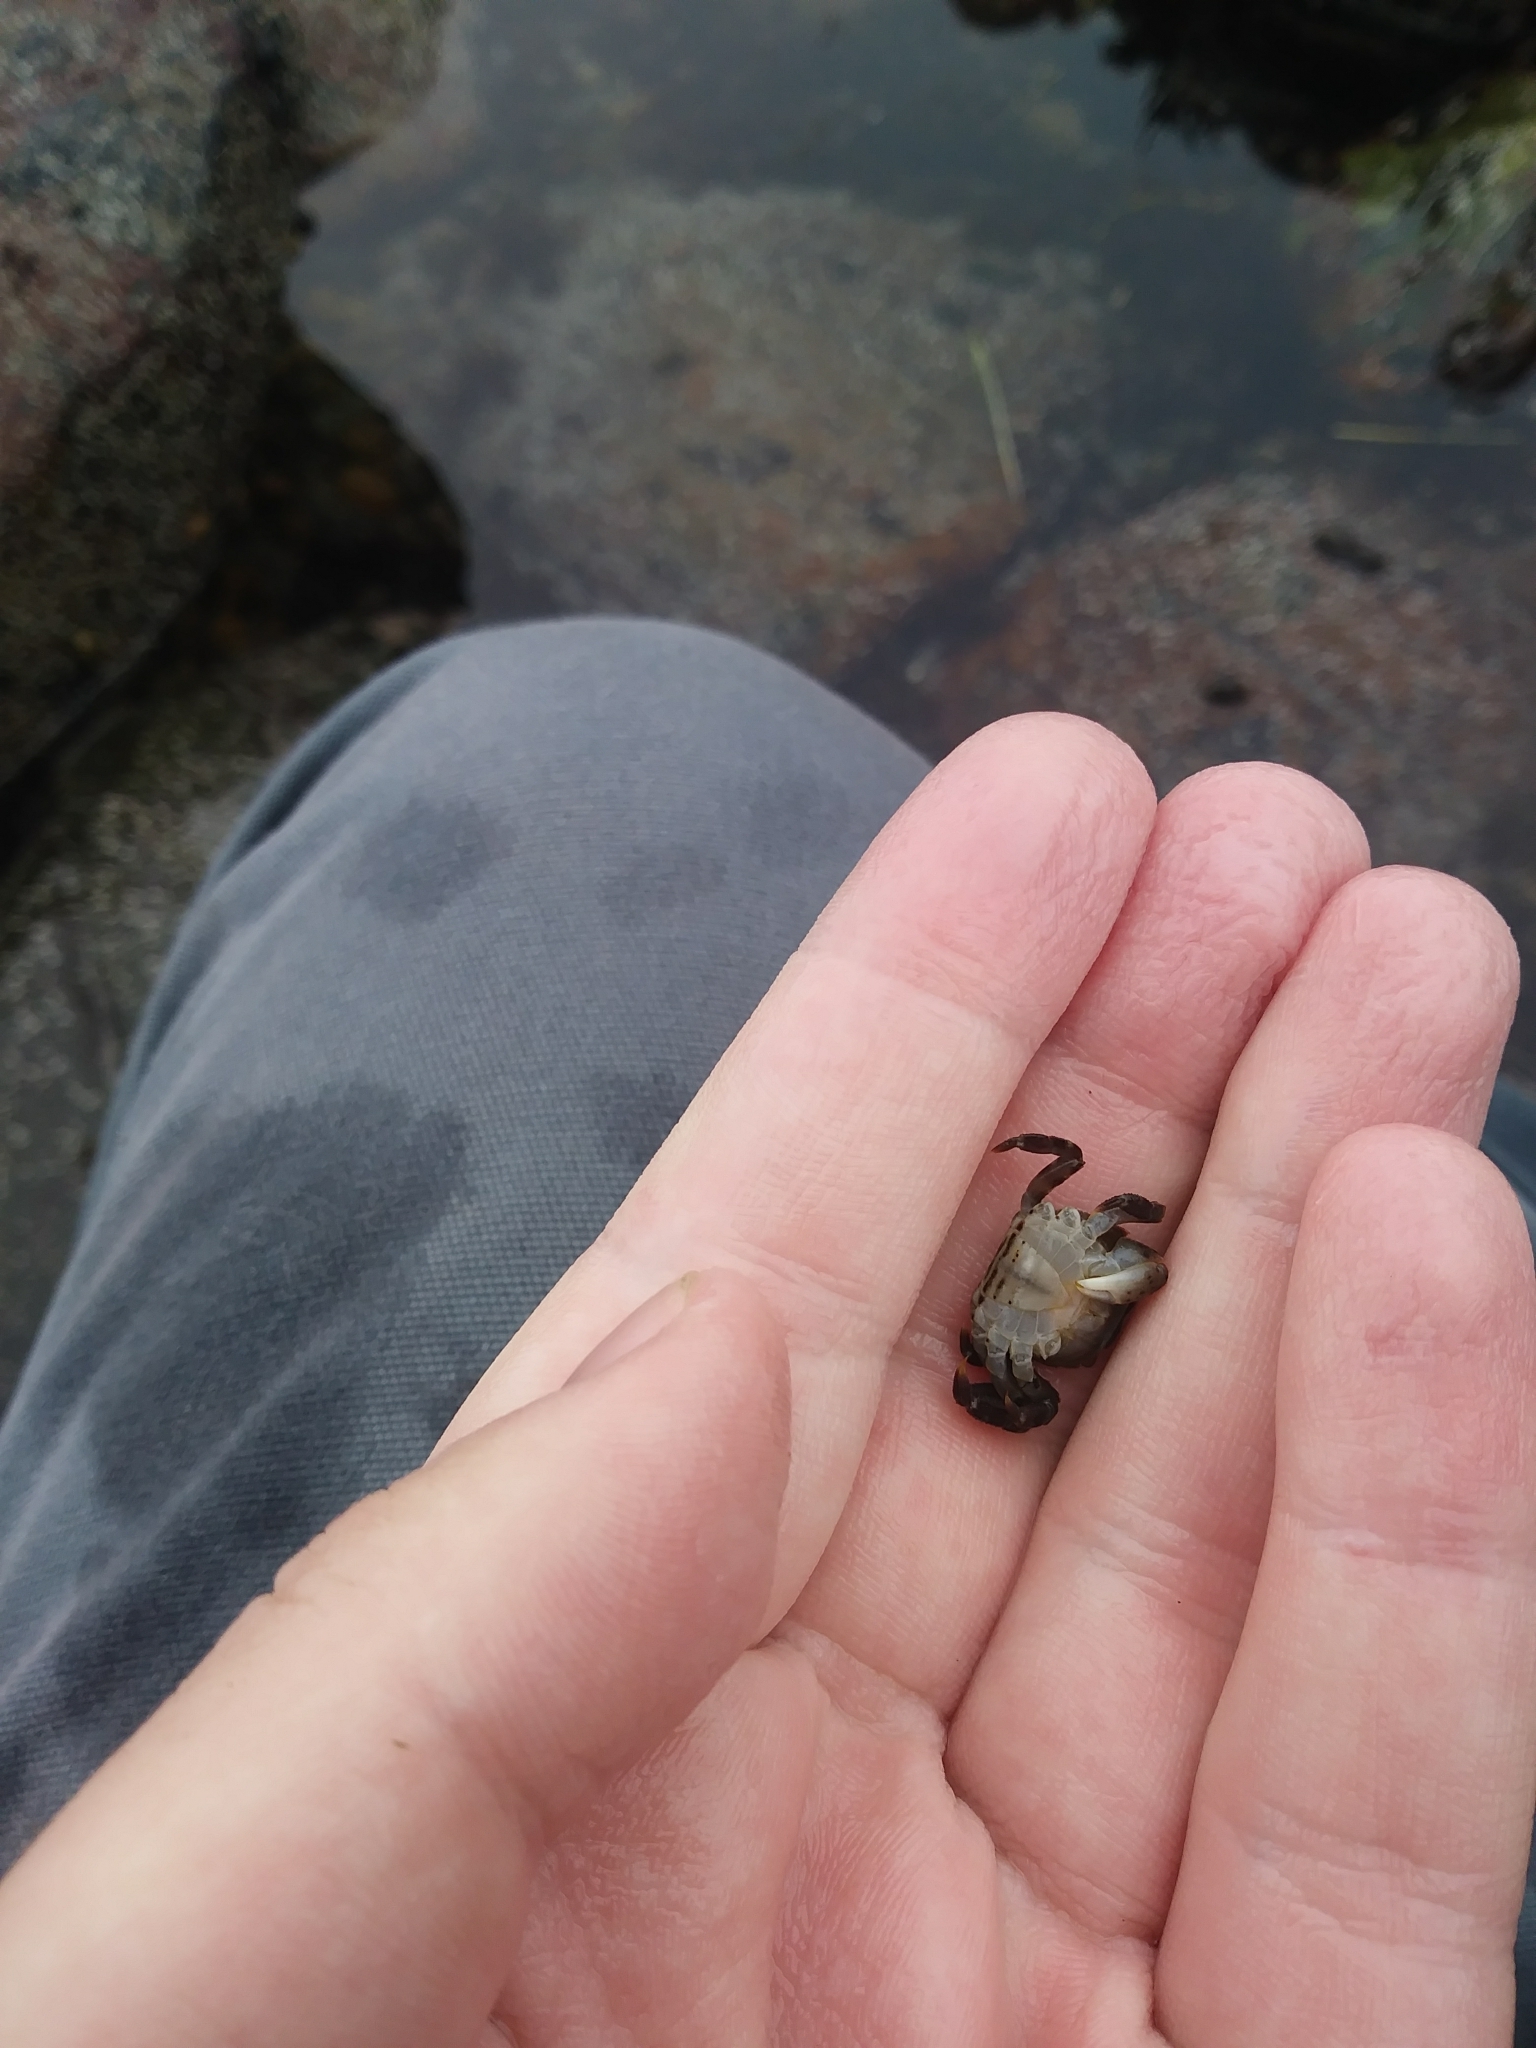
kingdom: Animalia
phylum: Arthropoda
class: Malacostraca
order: Decapoda
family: Varunidae
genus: Hemigrapsus
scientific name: Hemigrapsus sanguineus
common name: Asian shore crab
